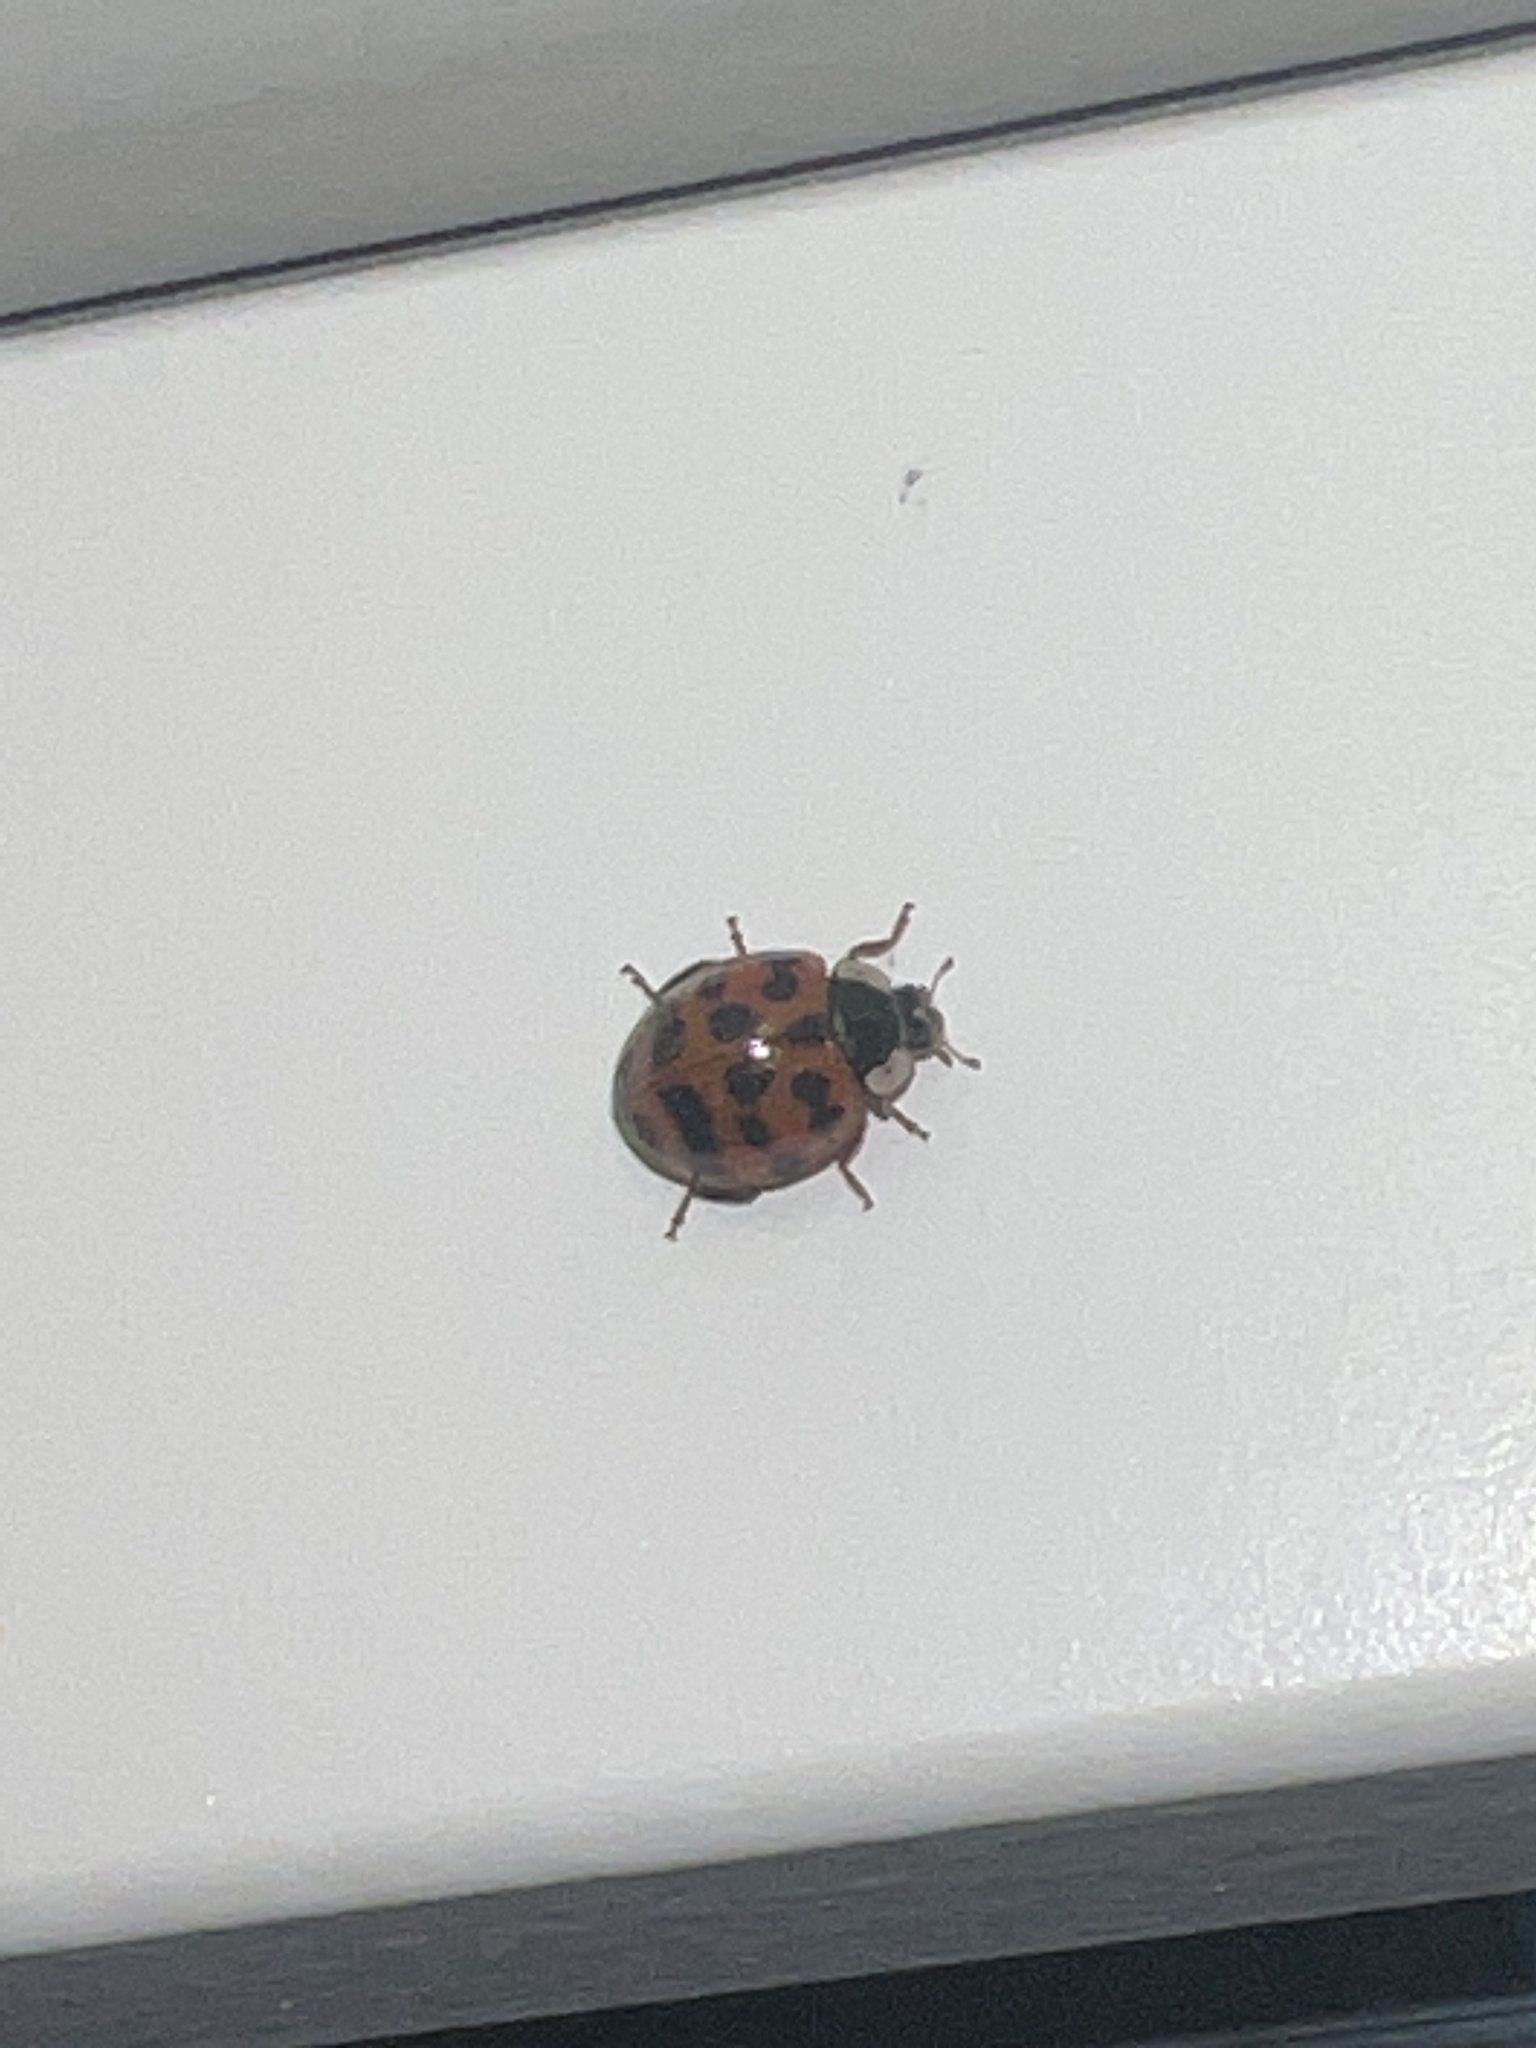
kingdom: Animalia
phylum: Arthropoda
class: Insecta
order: Coleoptera
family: Coccinellidae
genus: Harmonia
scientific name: Harmonia axyridis
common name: Harlequin ladybird
